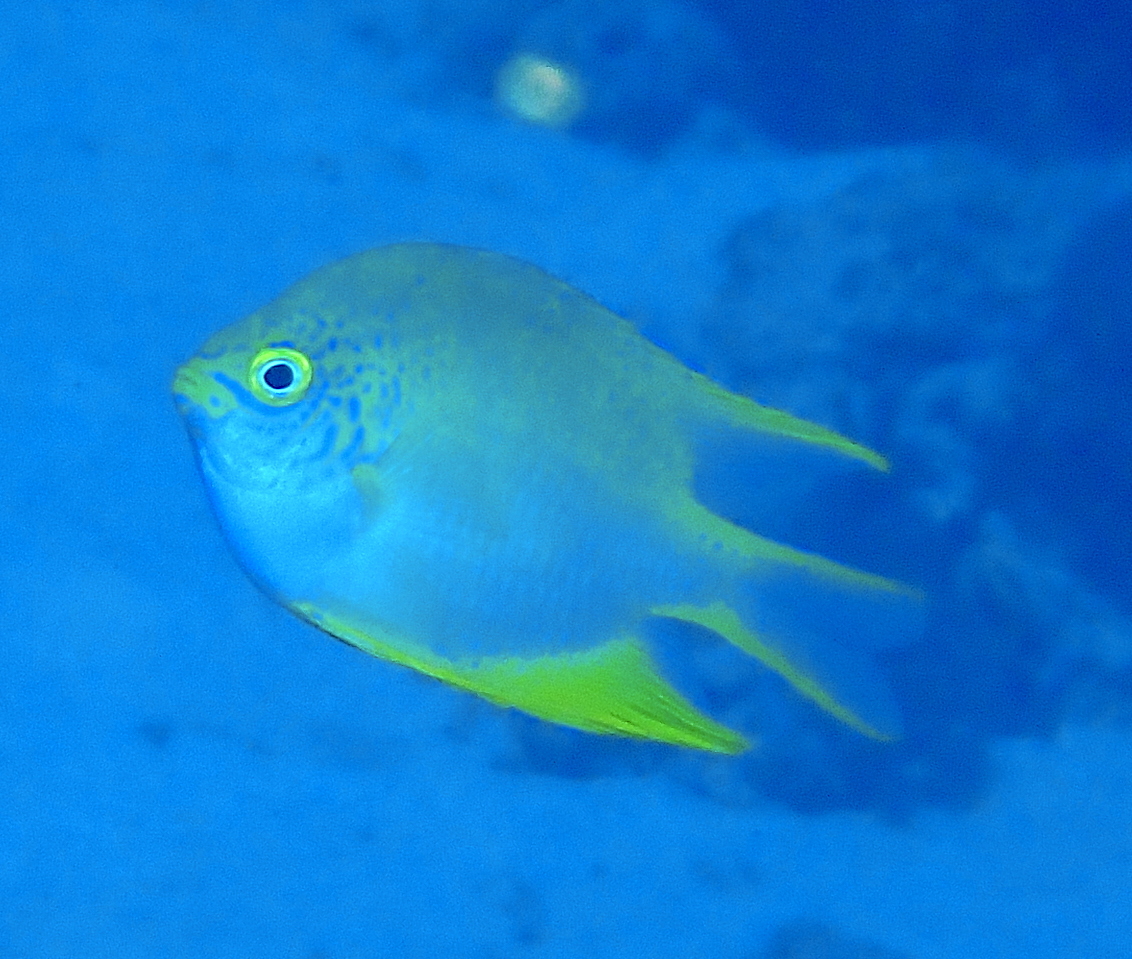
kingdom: Animalia
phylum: Chordata
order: Perciformes
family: Pomacentridae
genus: Amblyglyphidodon
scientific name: Amblyglyphidodon aureus
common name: Golden damsel
